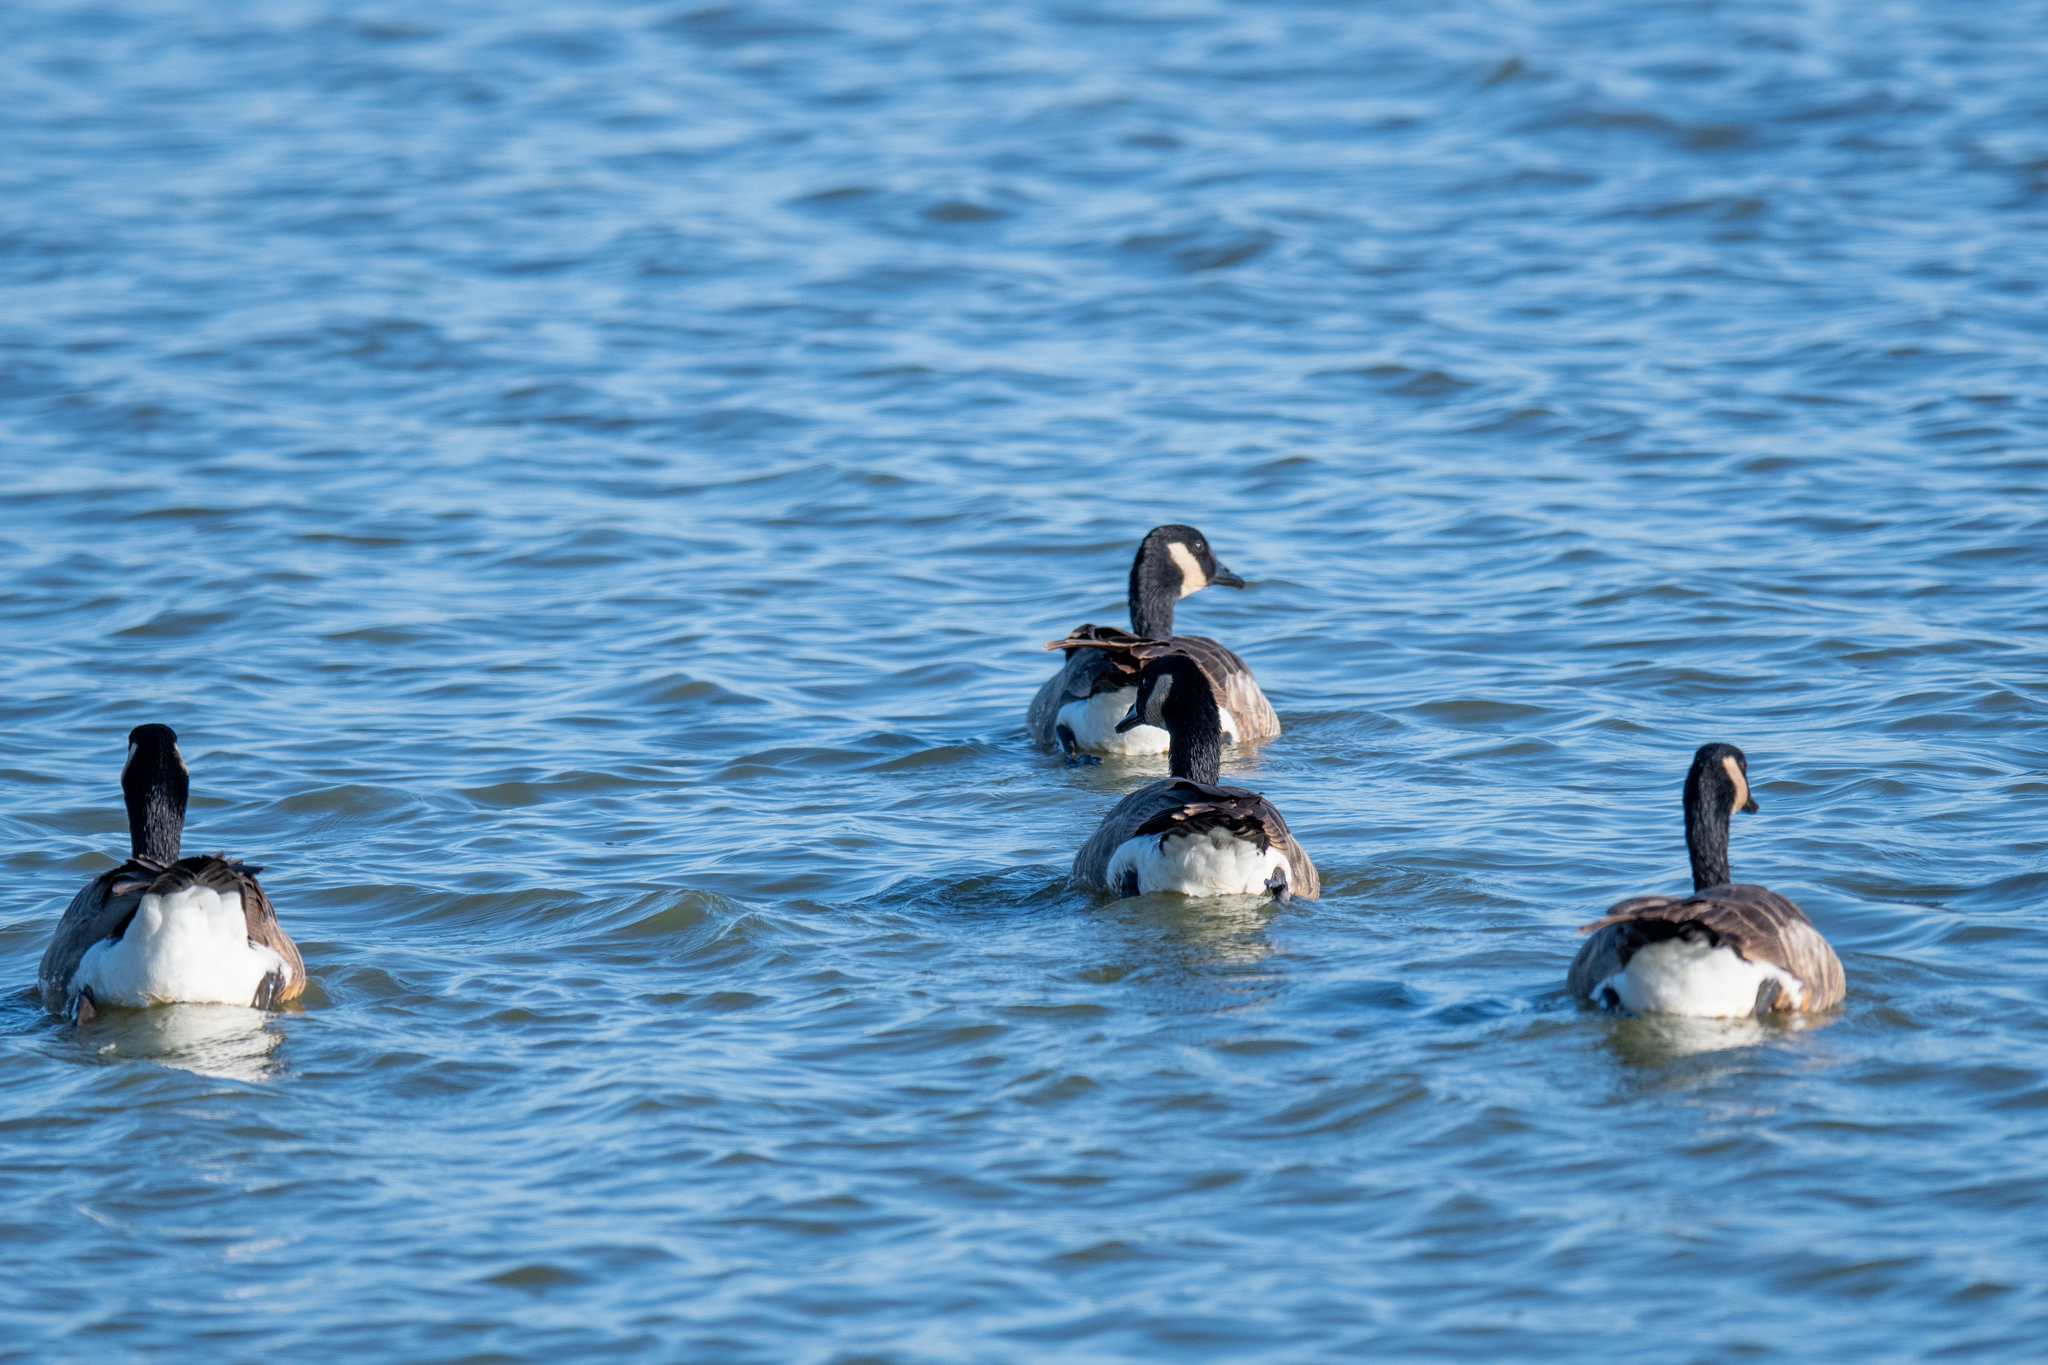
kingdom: Animalia
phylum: Chordata
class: Aves
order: Anseriformes
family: Anatidae
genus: Branta
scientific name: Branta canadensis
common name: Canada goose
